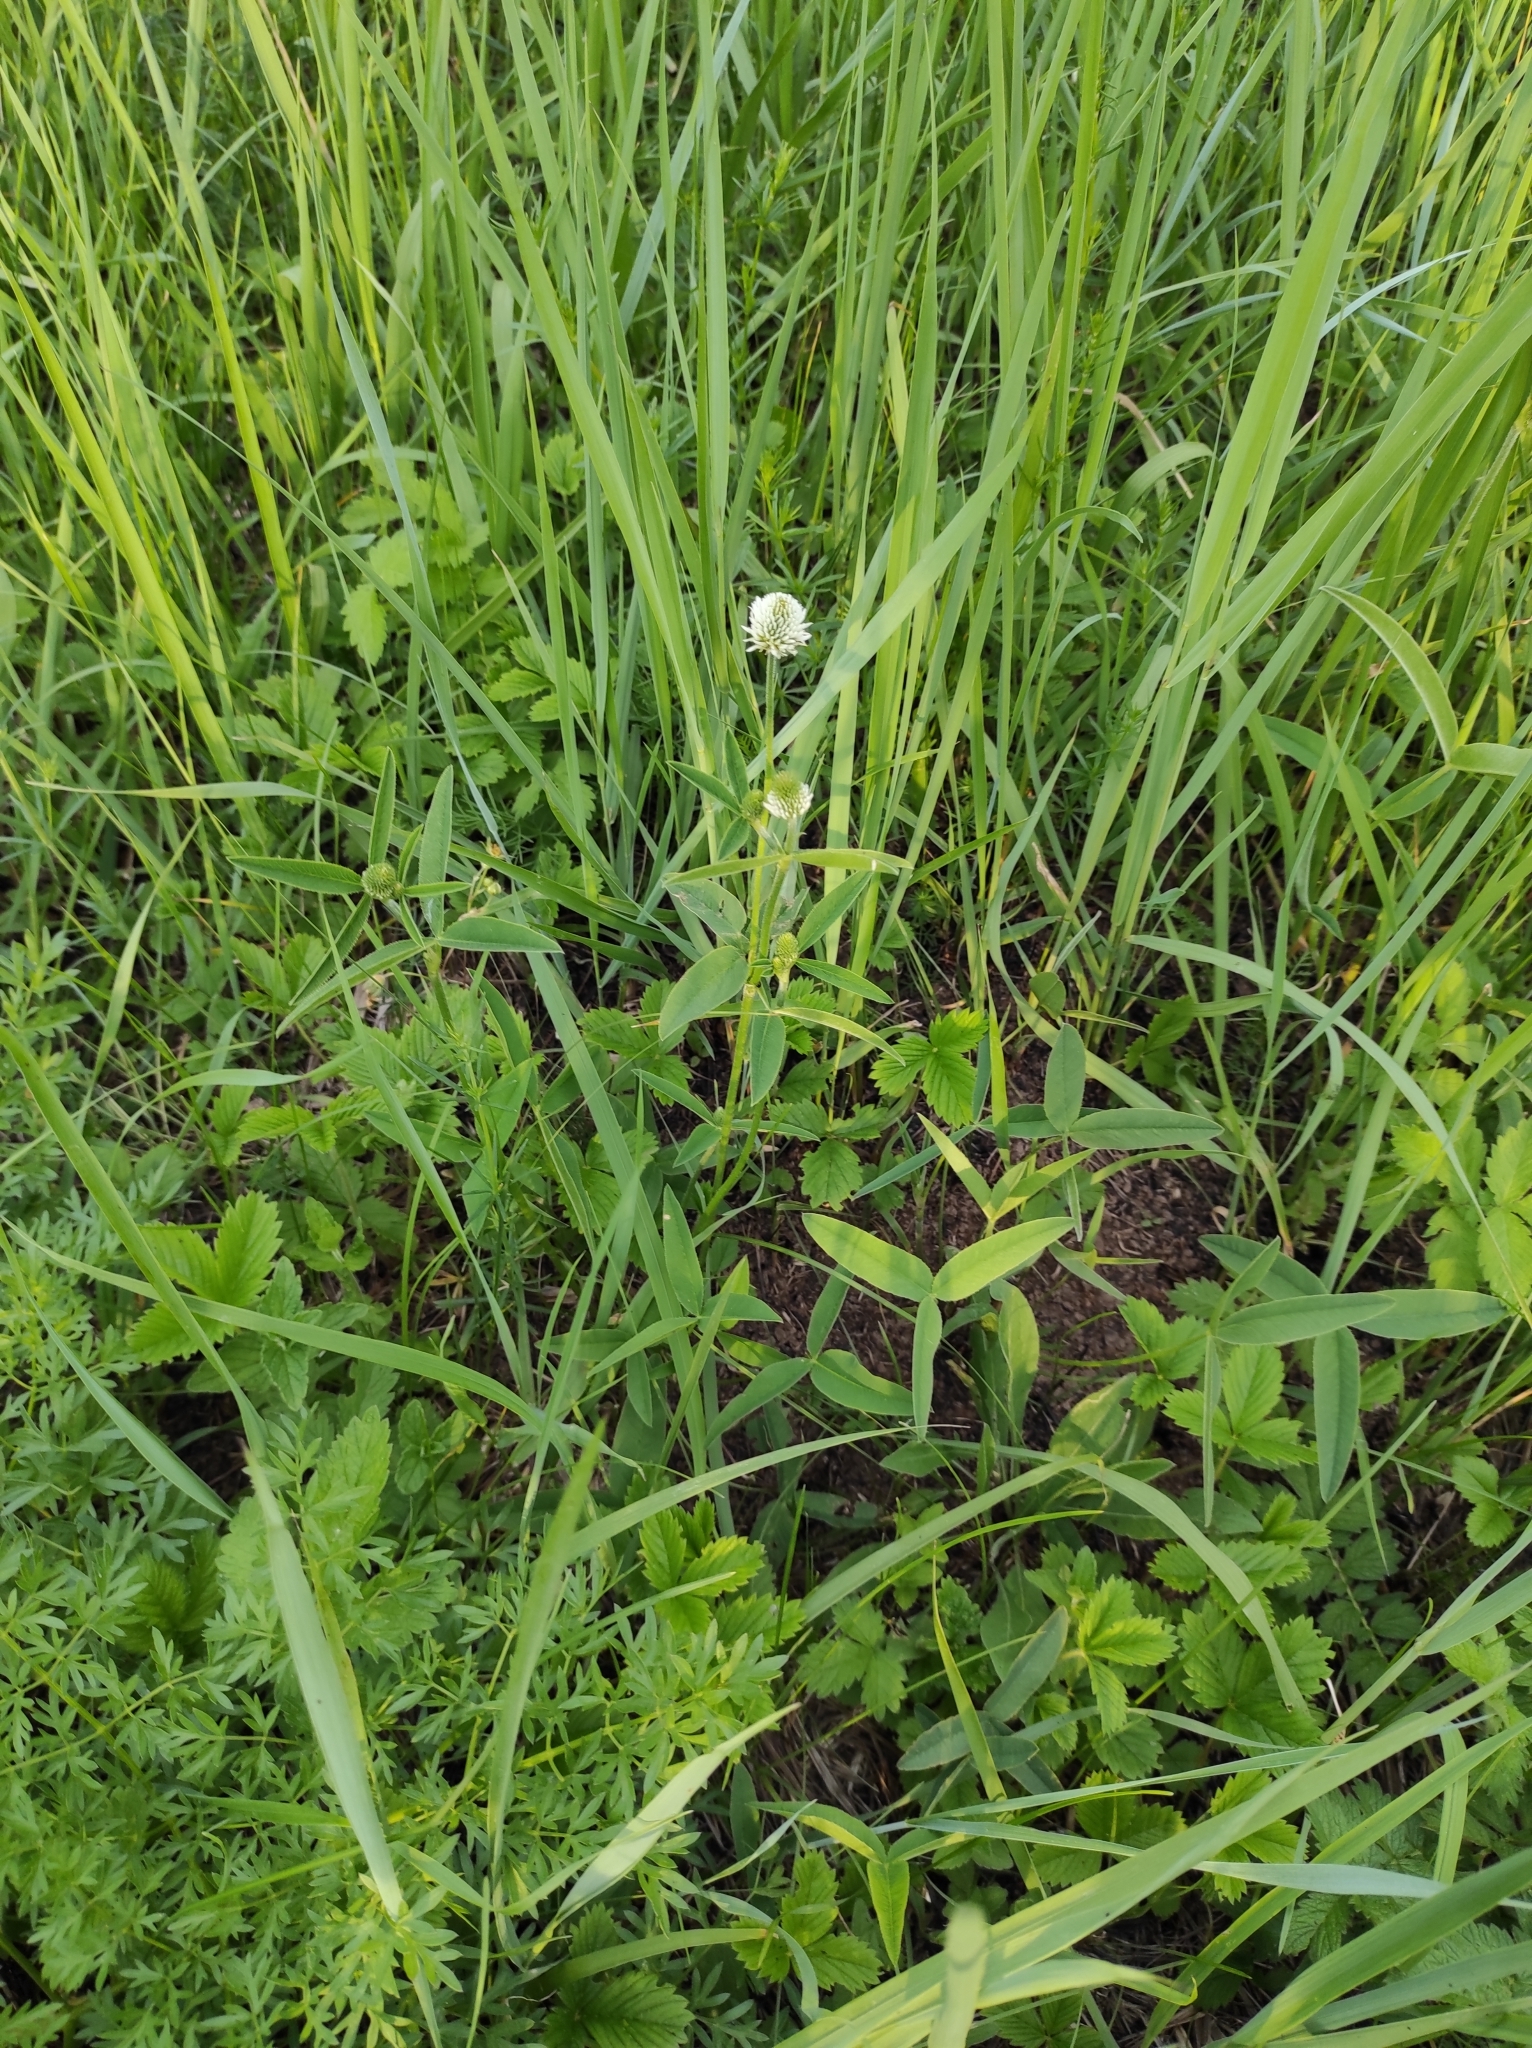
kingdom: Plantae
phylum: Tracheophyta
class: Magnoliopsida
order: Fabales
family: Fabaceae
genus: Trifolium
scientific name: Trifolium montanum
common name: Mountain clover
